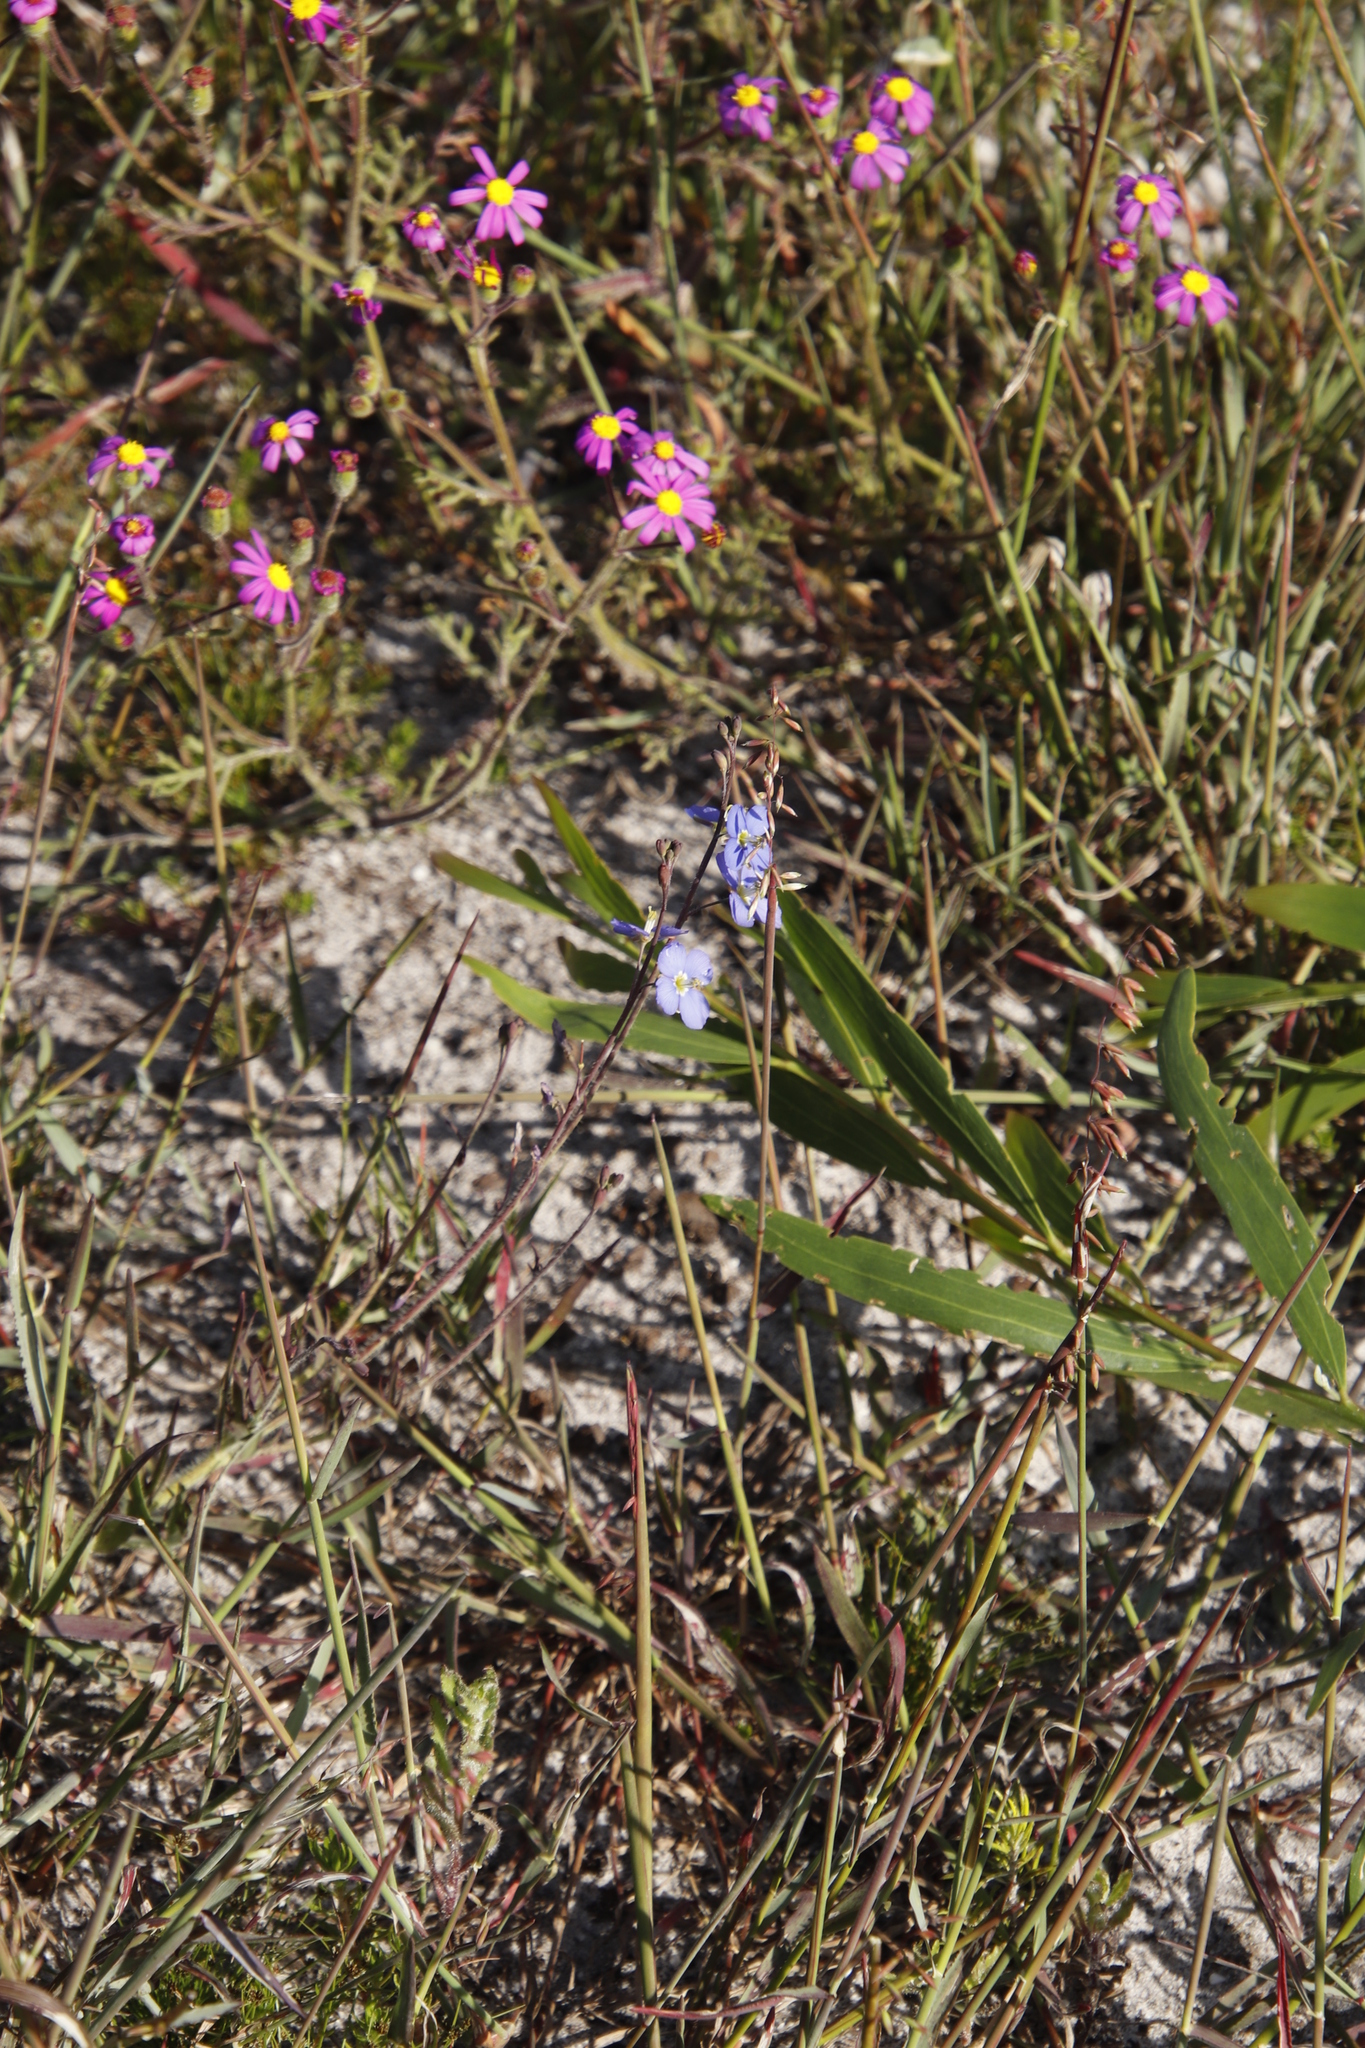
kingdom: Plantae
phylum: Tracheophyta
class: Magnoliopsida
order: Brassicales
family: Brassicaceae
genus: Heliophila
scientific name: Heliophila africana
